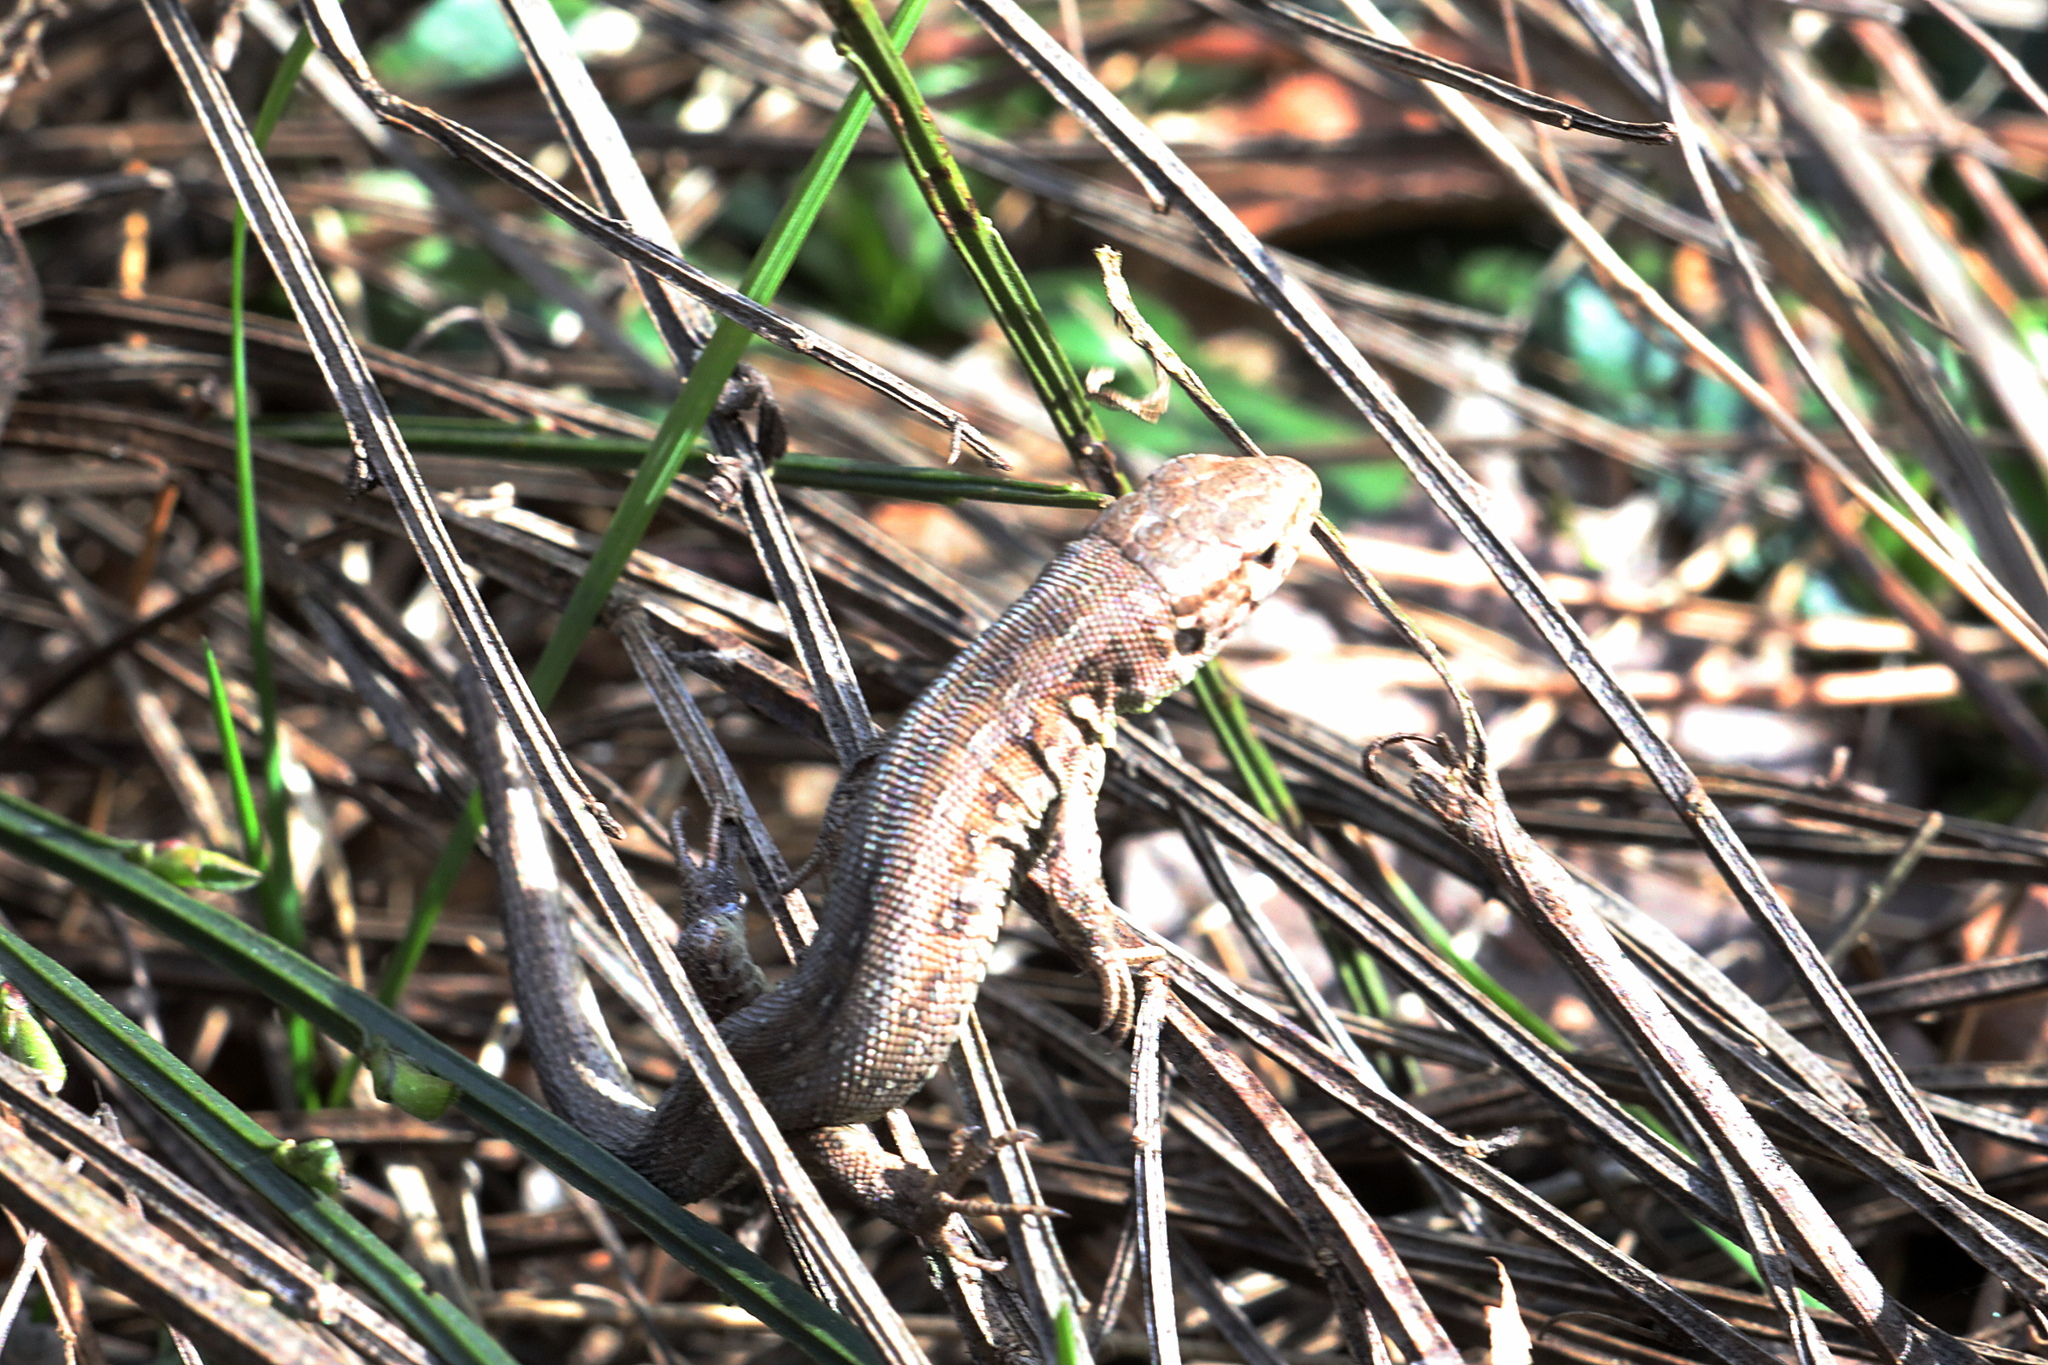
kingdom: Animalia
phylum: Chordata
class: Squamata
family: Lacertidae
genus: Lacerta
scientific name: Lacerta agilis
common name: Sand lizard
